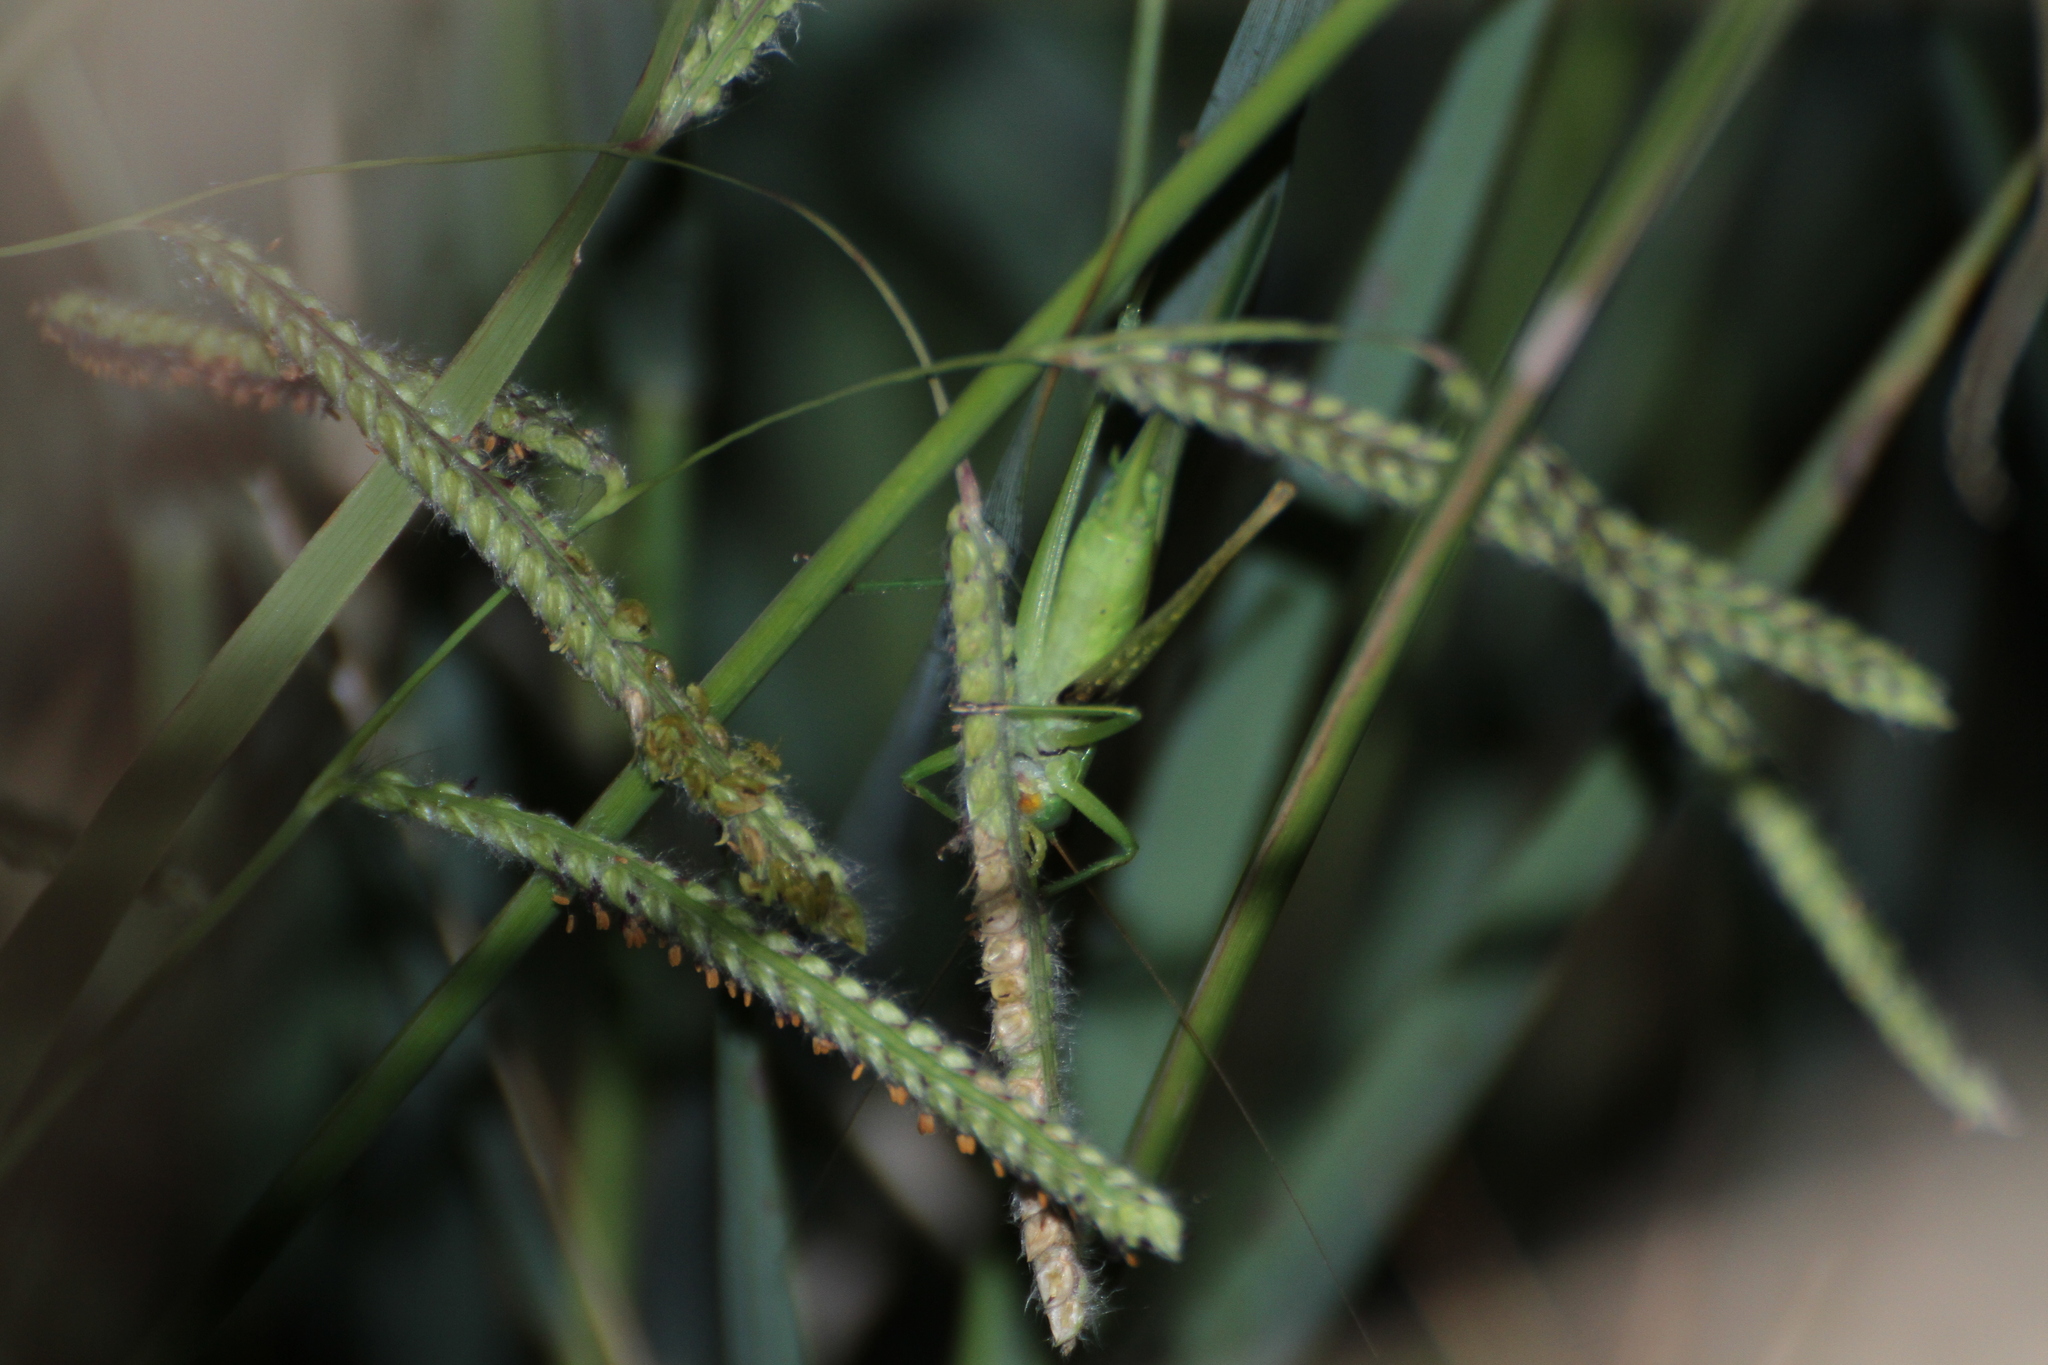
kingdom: Animalia
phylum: Arthropoda
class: Insecta
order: Orthoptera
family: Tettigoniidae
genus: Ruspolia
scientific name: Ruspolia nitidula
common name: Large conehead
